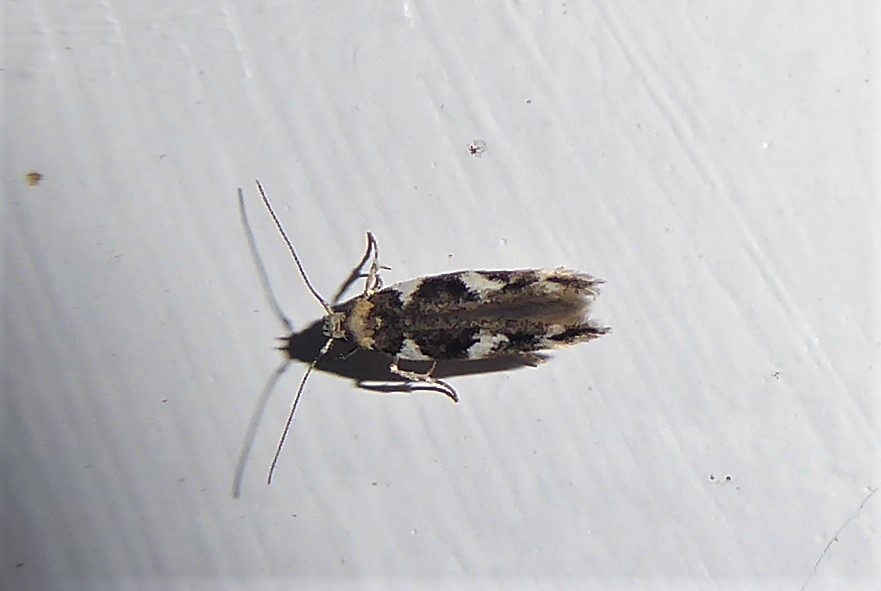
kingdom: Animalia
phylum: Arthropoda
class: Insecta
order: Lepidoptera
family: Cosmopterigidae
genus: Pyroderces
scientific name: Pyroderces deamatella
